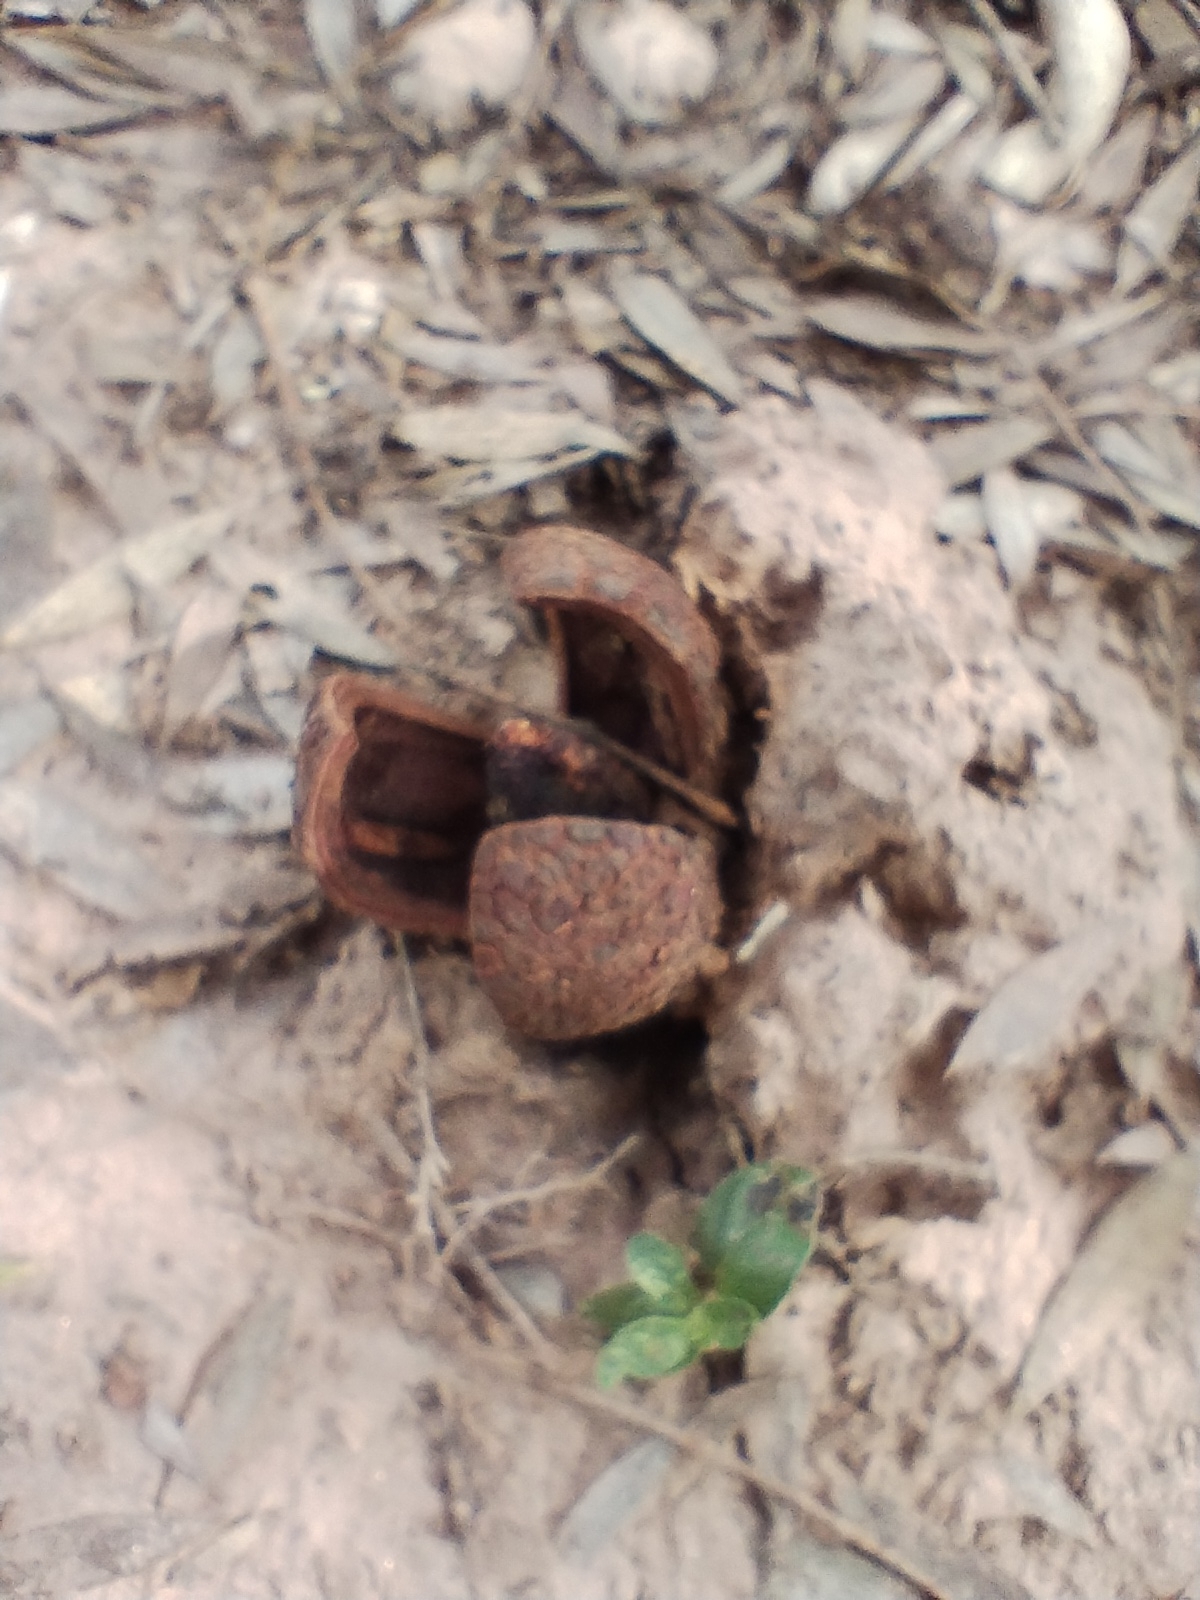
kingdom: Plantae
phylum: Tracheophyta
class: Magnoliopsida
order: Piperales
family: Hydnoraceae
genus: Prosopanche
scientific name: Prosopanche americana
